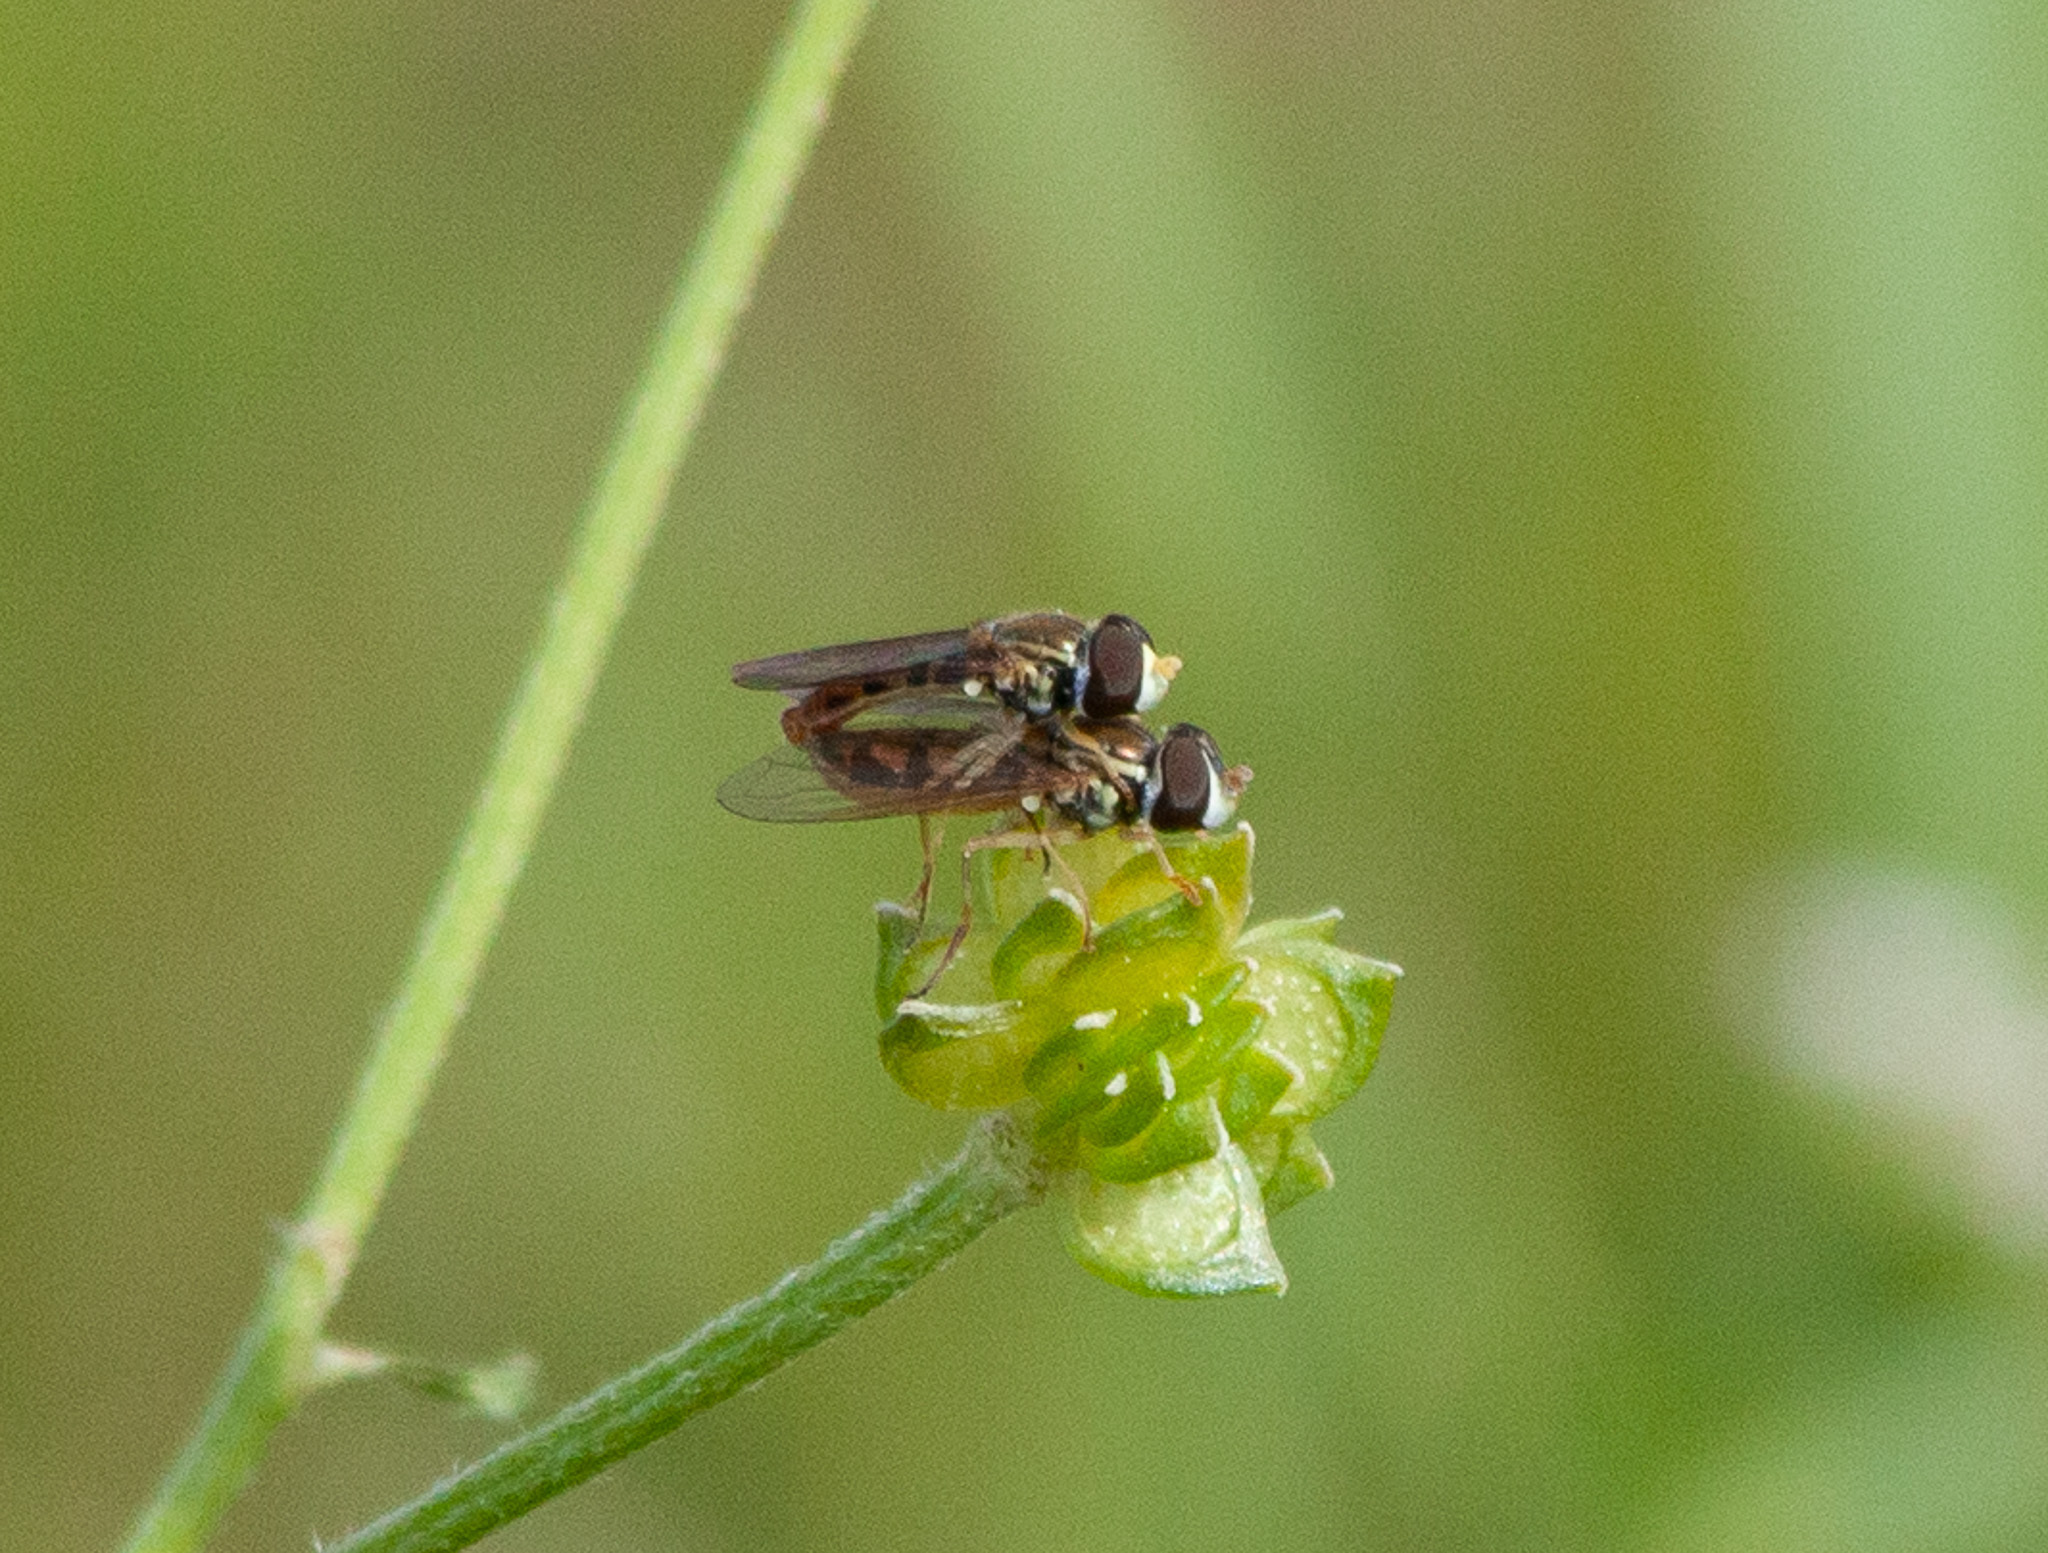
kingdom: Animalia
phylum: Arthropoda
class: Insecta
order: Diptera
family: Syrphidae
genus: Toxomerus
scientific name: Toxomerus marginatus
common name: Syrphid fly
